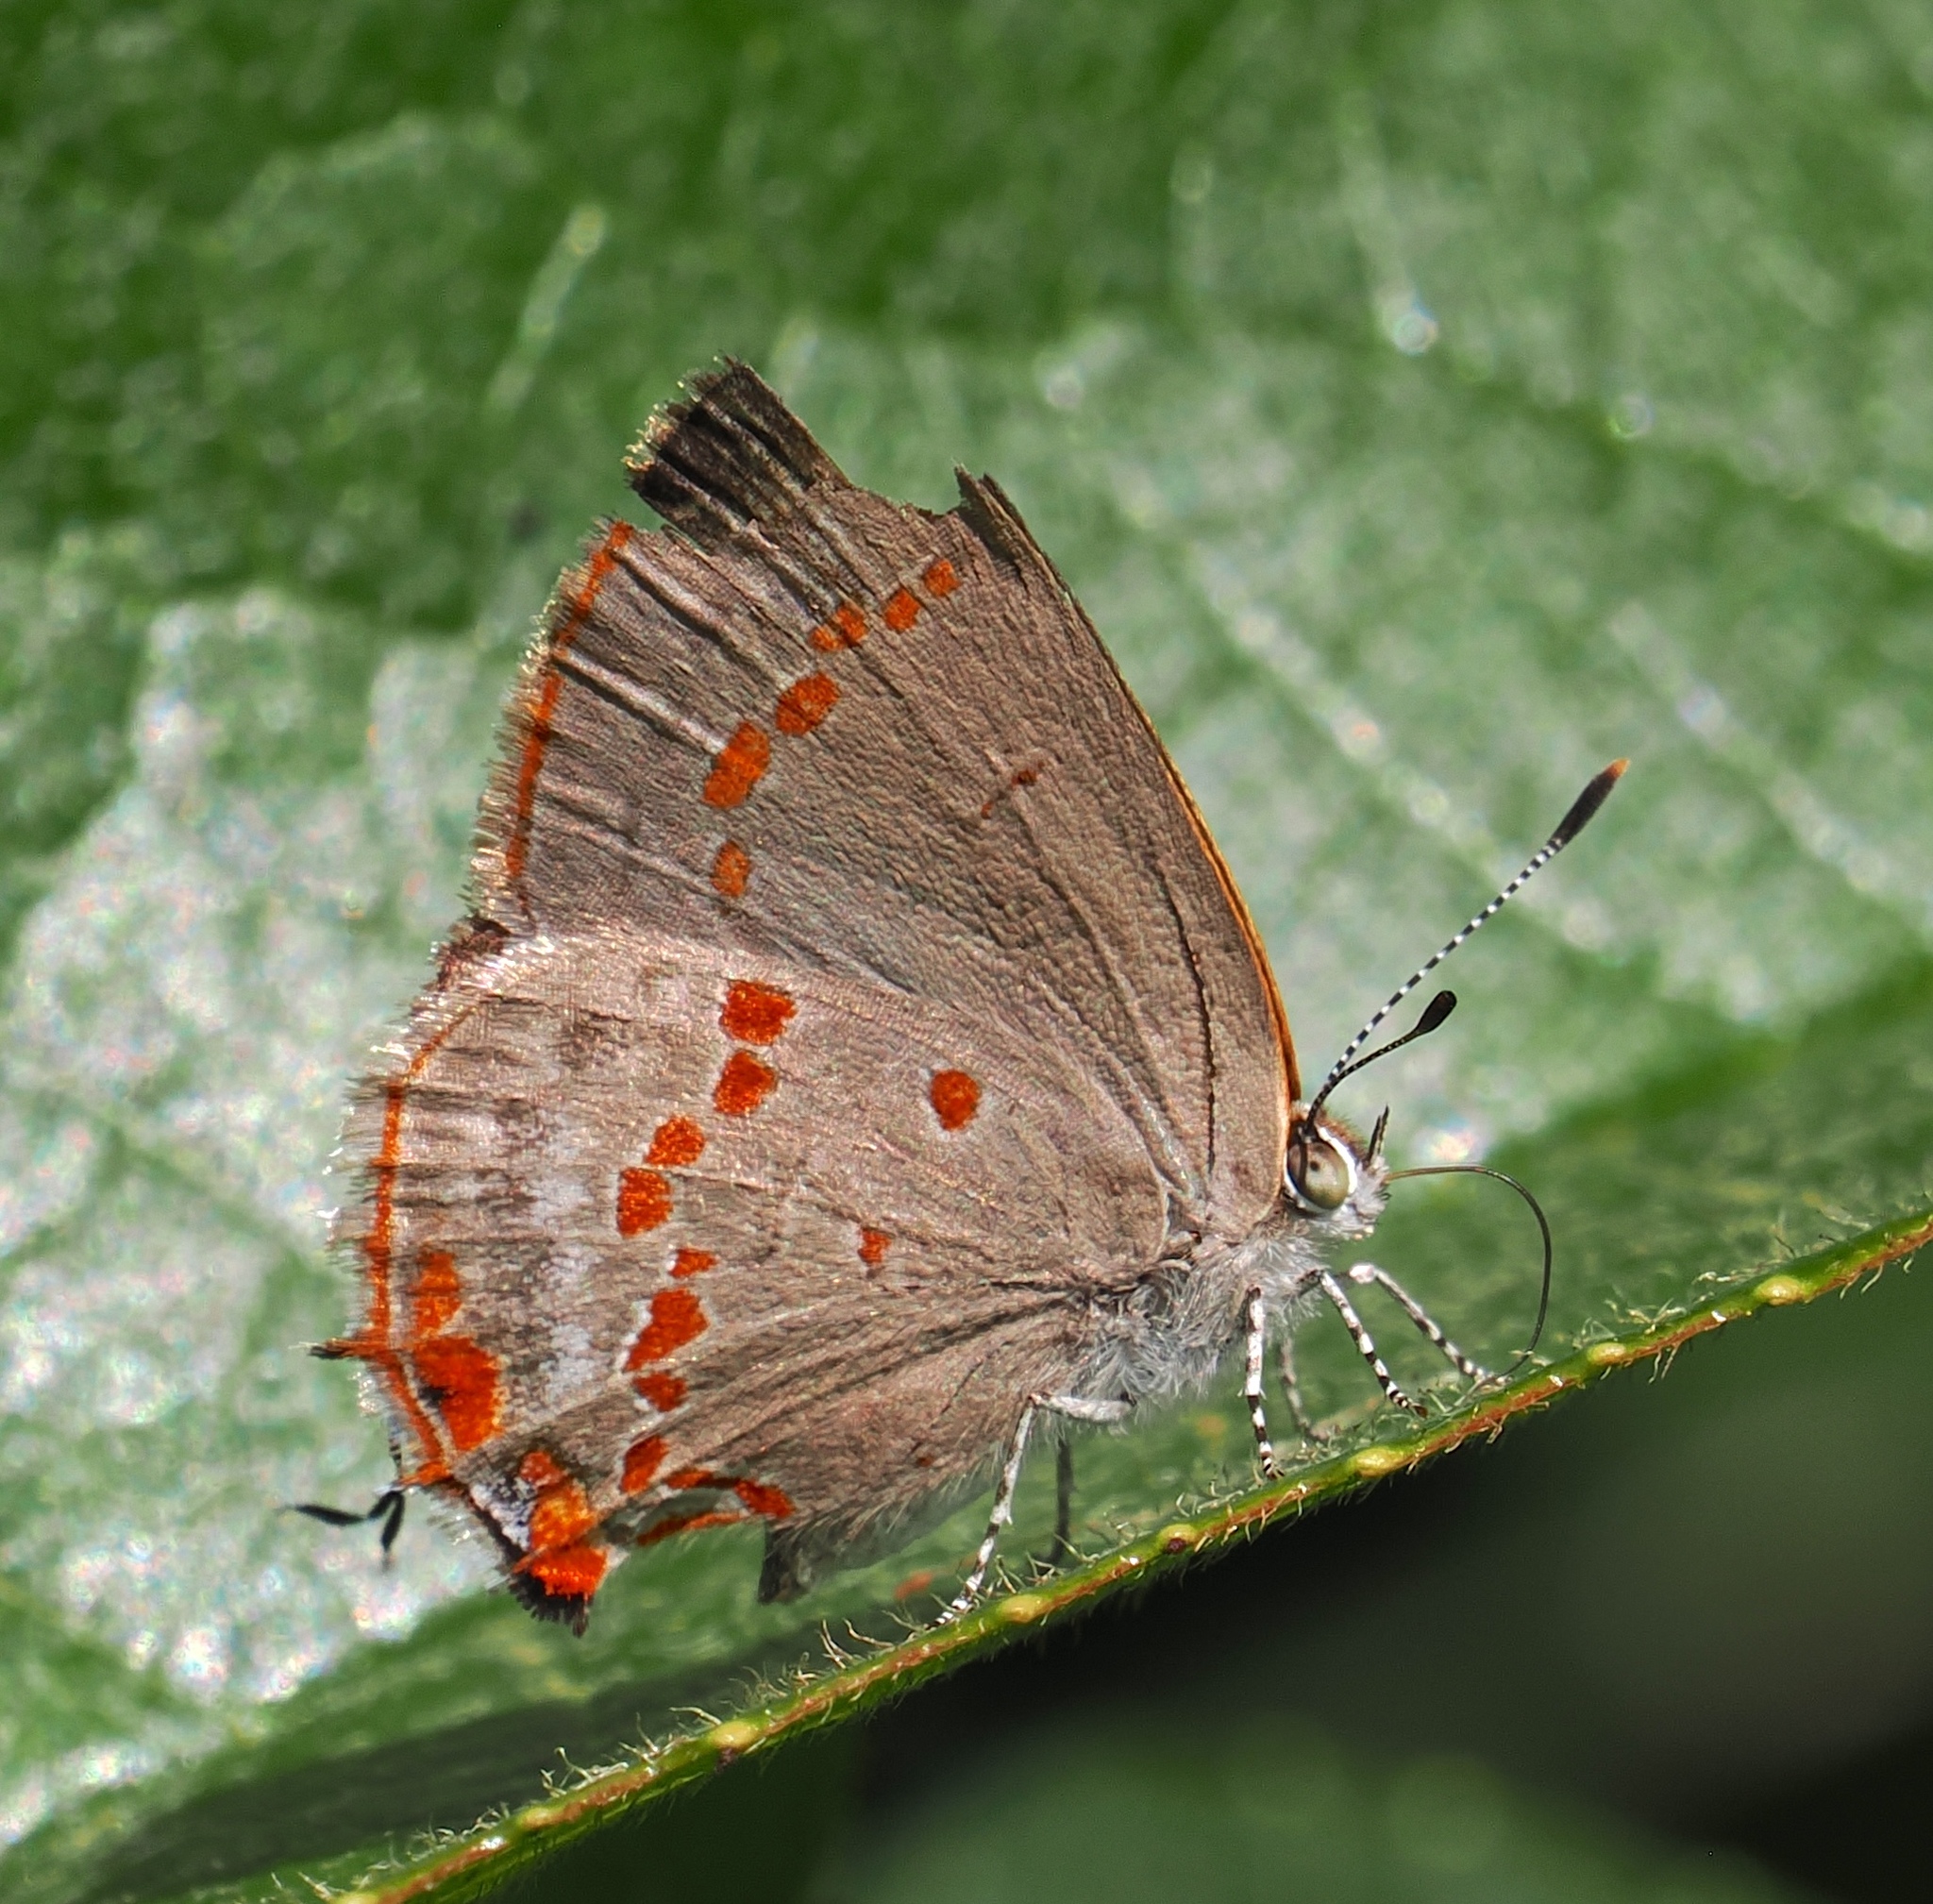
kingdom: Animalia
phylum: Arthropoda
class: Insecta
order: Lepidoptera
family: Lycaenidae
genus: Ministrymon
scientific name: Ministrymon
